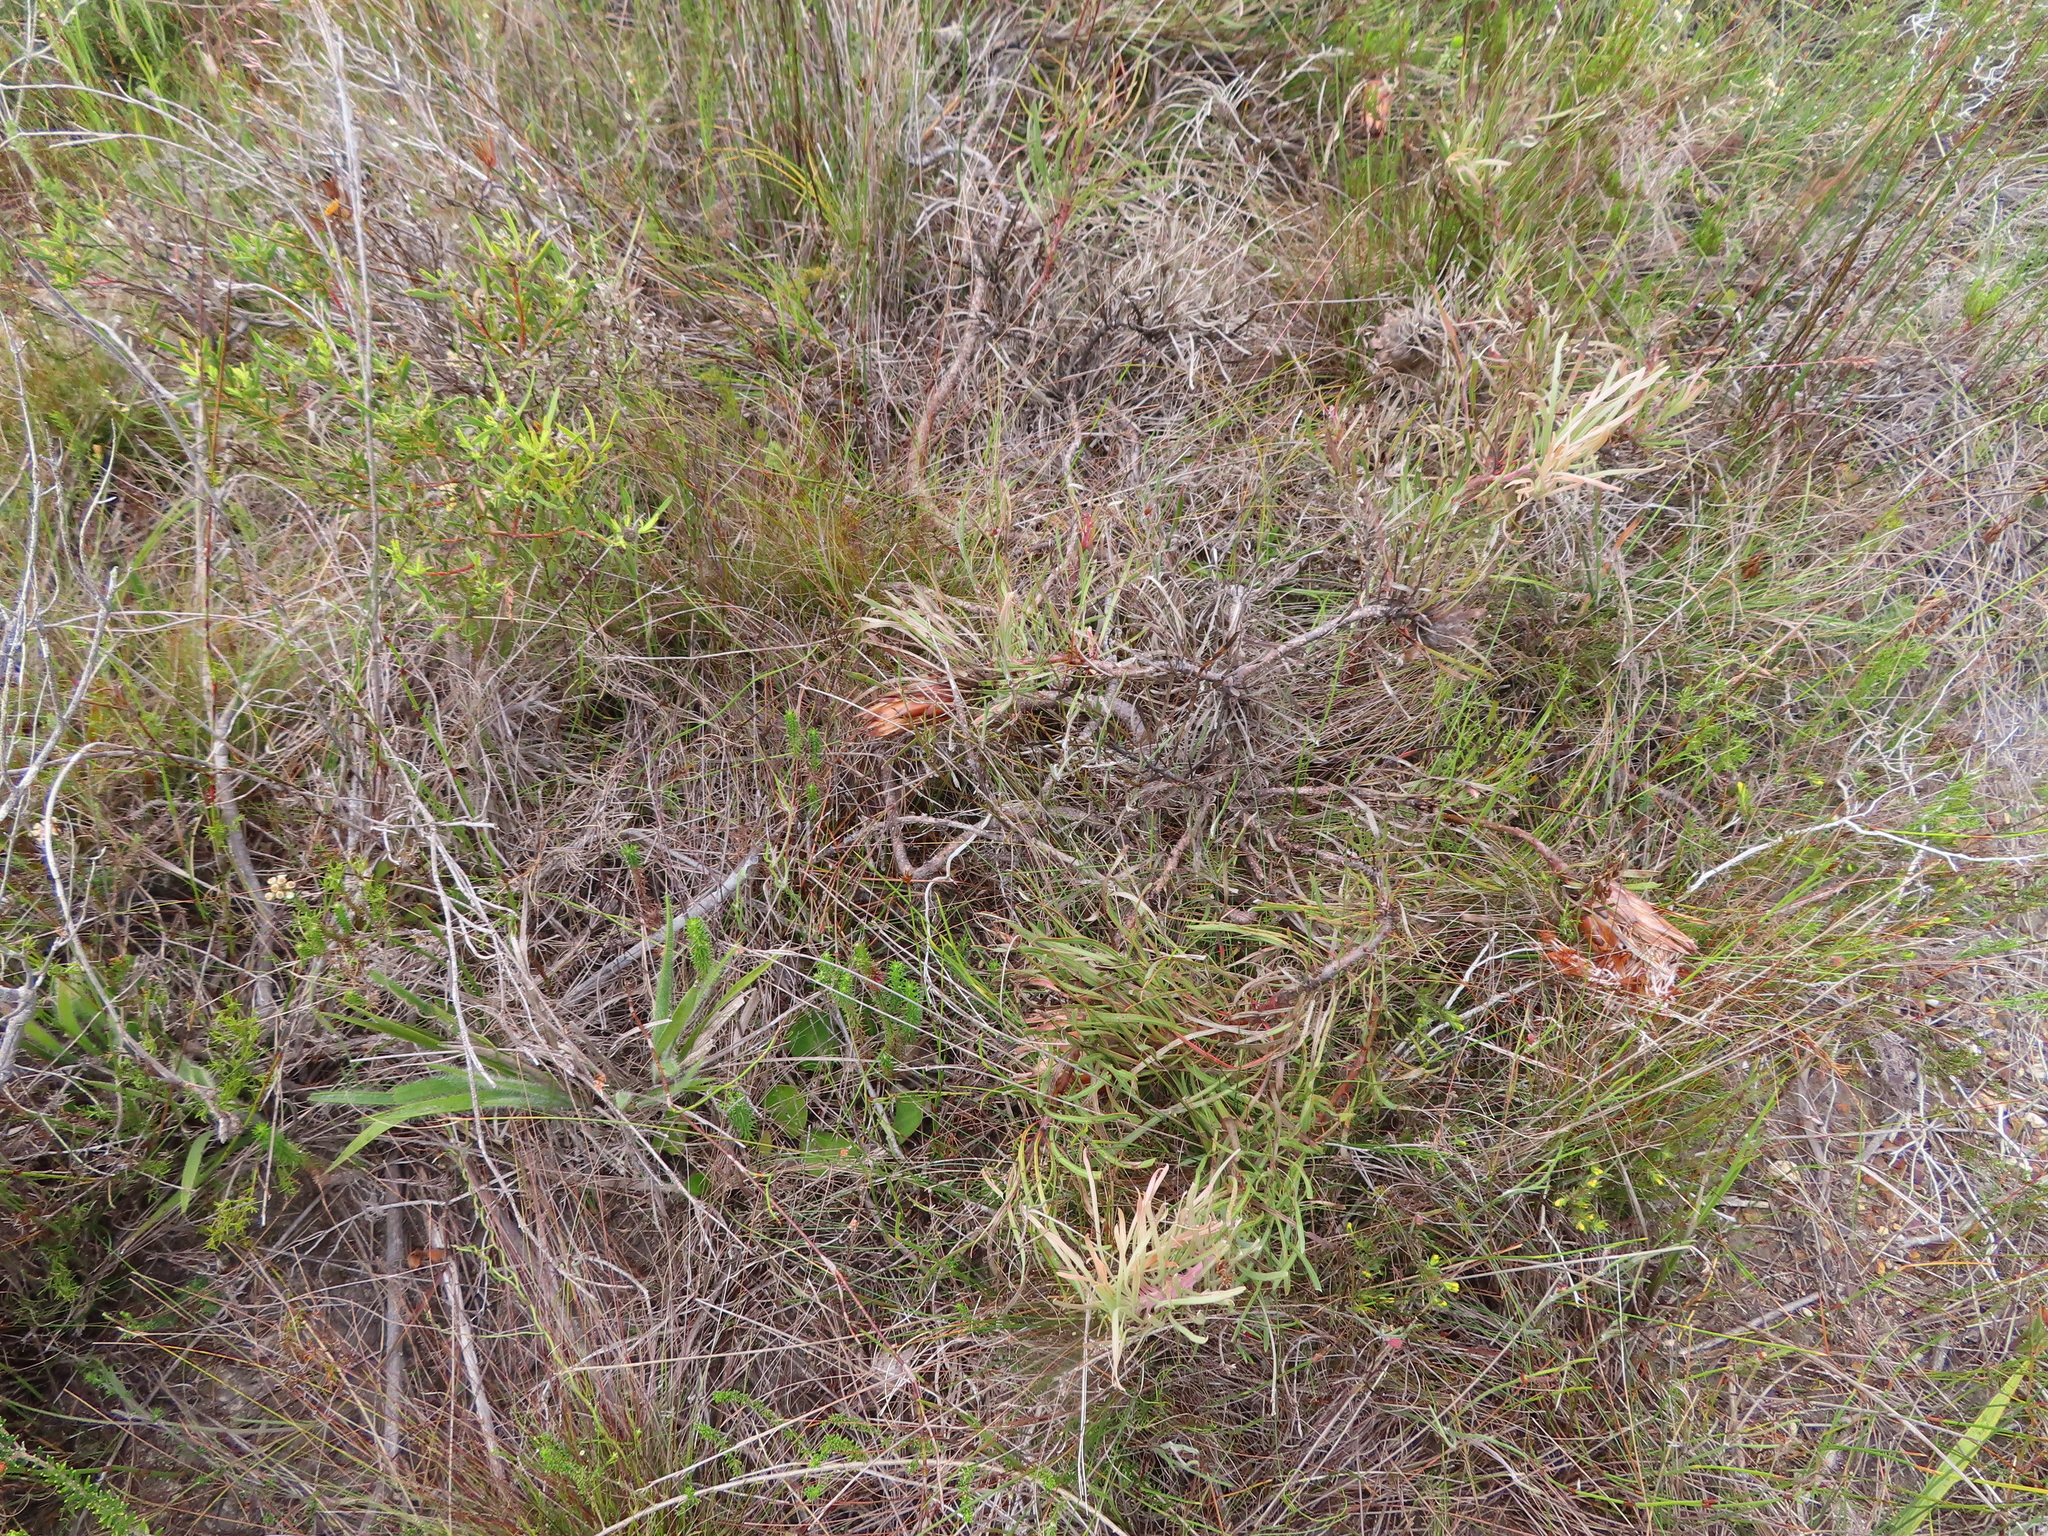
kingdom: Plantae
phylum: Tracheophyta
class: Magnoliopsida
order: Proteales
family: Proteaceae
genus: Protea
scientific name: Protea pudens
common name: Bashful sugarbush
